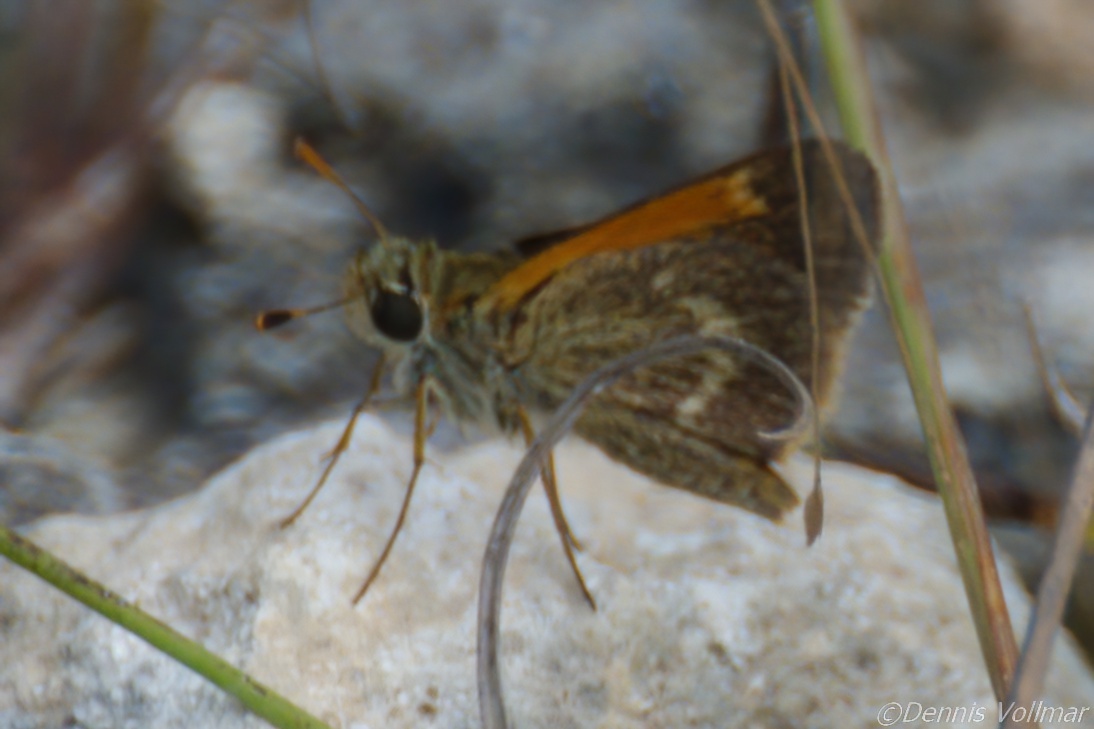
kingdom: Animalia
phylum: Arthropoda
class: Insecta
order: Lepidoptera
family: Hesperiidae
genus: Polites
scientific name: Polites baracoa
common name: Baracoa skipper
